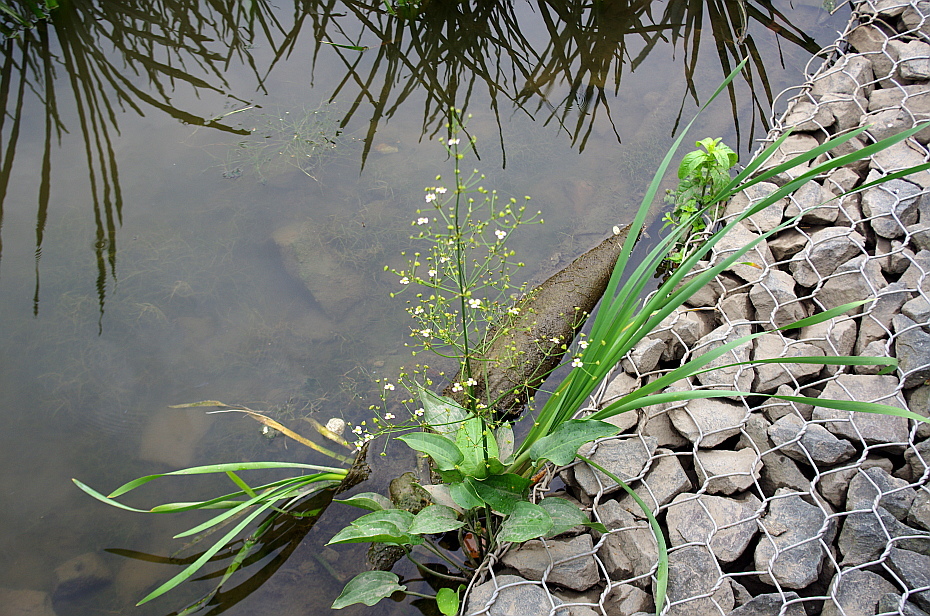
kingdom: Plantae
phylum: Tracheophyta
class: Liliopsida
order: Alismatales
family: Alismataceae
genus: Alisma
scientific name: Alisma plantago-aquatica
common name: Water-plantain
